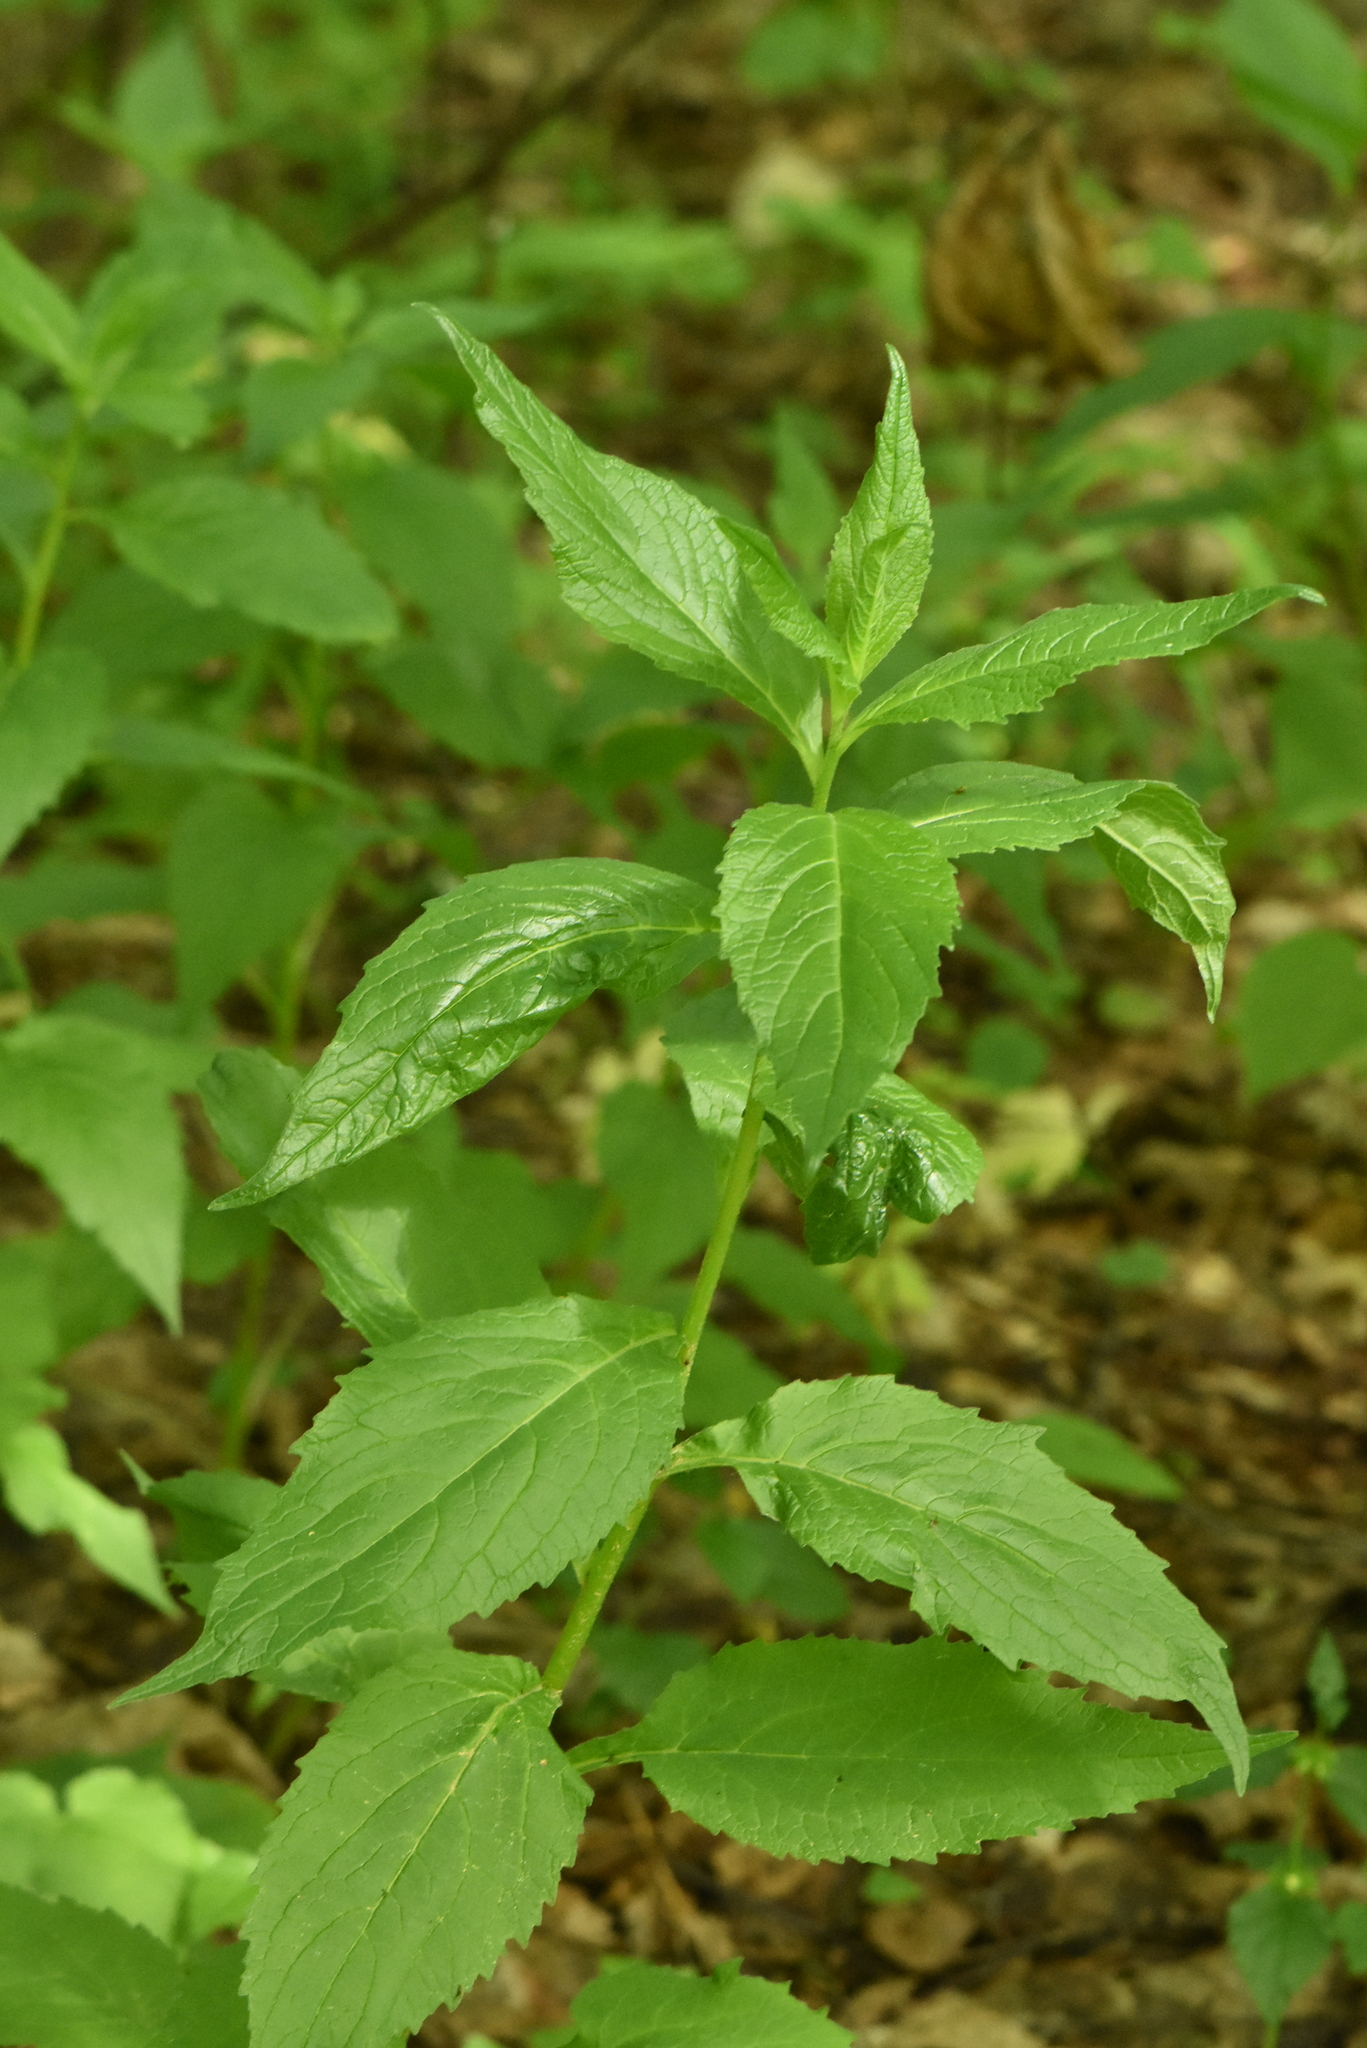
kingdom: Plantae
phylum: Tracheophyta
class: Magnoliopsida
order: Asterales
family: Campanulaceae
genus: Campanula
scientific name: Campanula latifolia
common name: Giant bellflower
